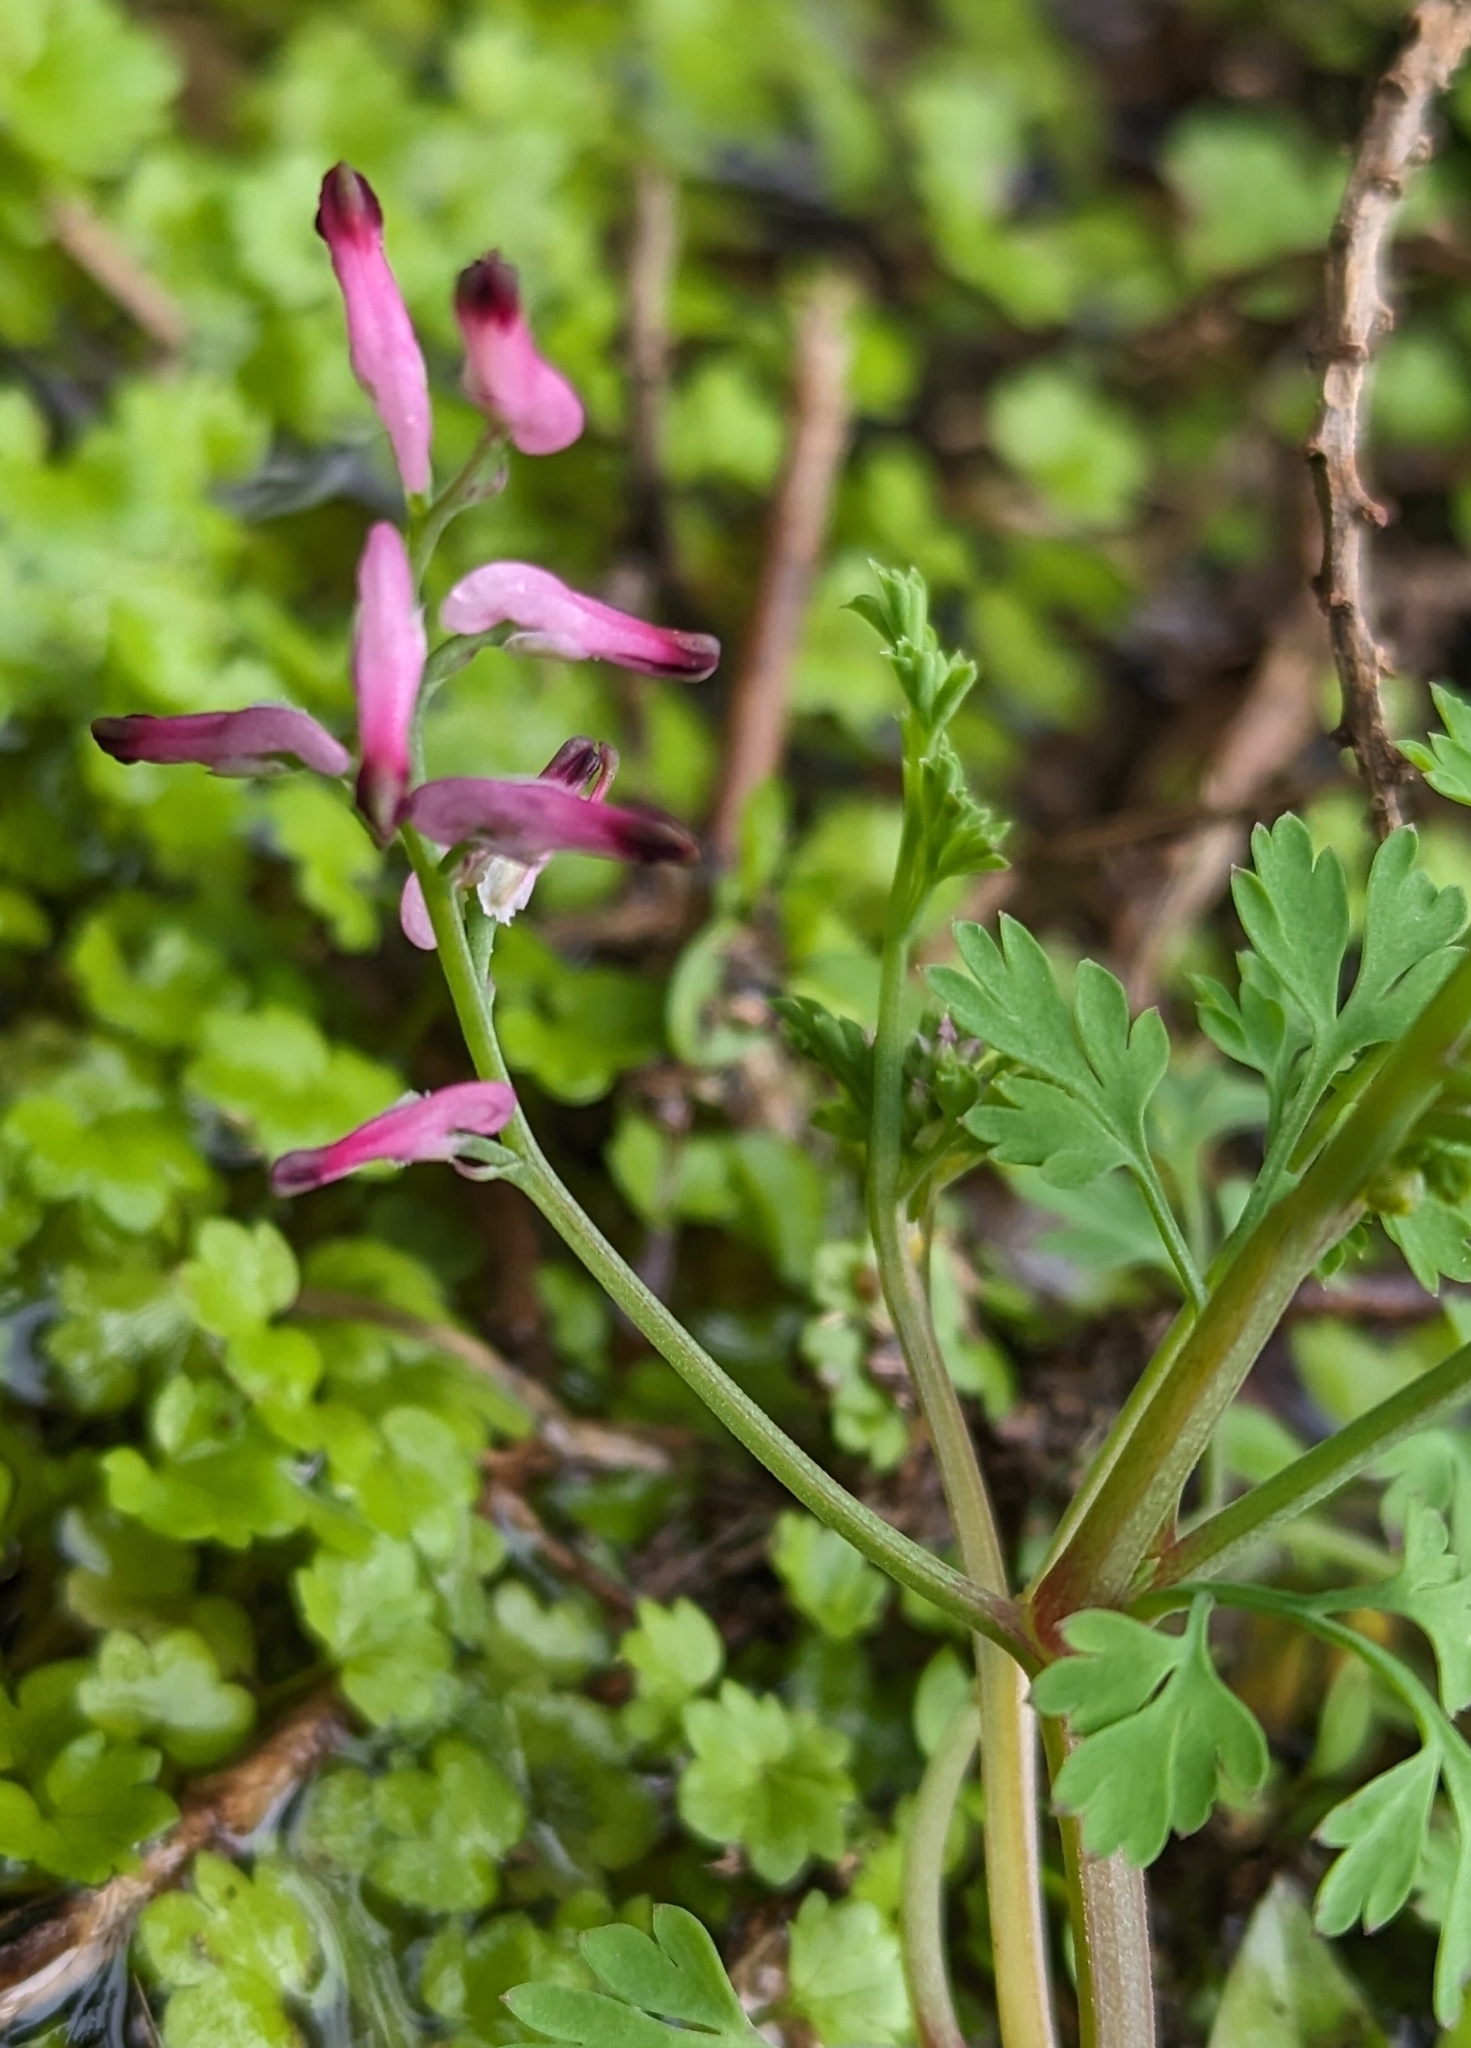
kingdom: Plantae
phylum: Tracheophyta
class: Magnoliopsida
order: Ranunculales
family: Papaveraceae
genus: Fumaria
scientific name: Fumaria muralis
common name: Common ramping-fumitory
